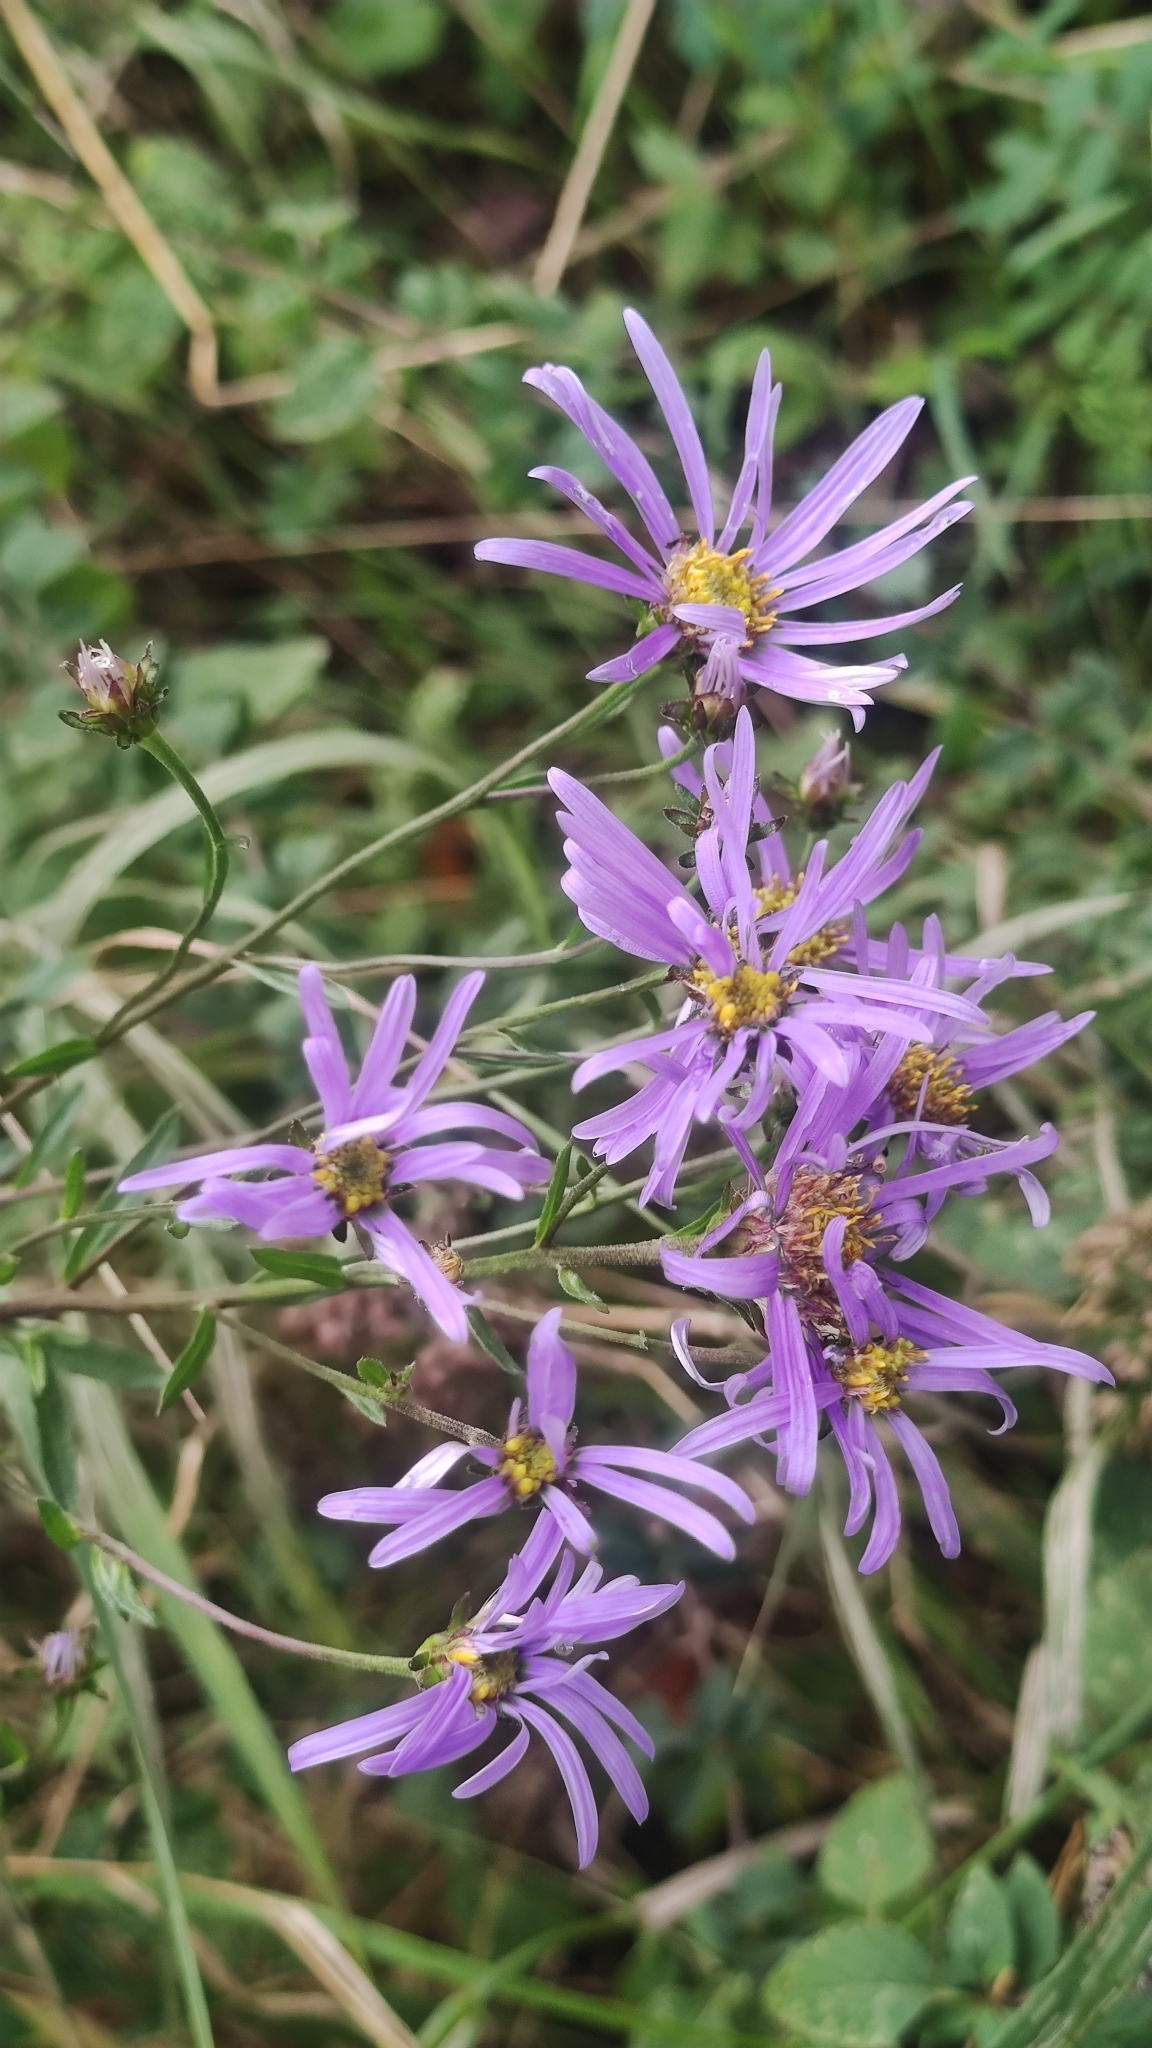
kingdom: Plantae
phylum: Tracheophyta
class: Magnoliopsida
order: Asterales
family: Asteraceae
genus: Aster
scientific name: Aster amellus
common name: European michaelmas daisy
